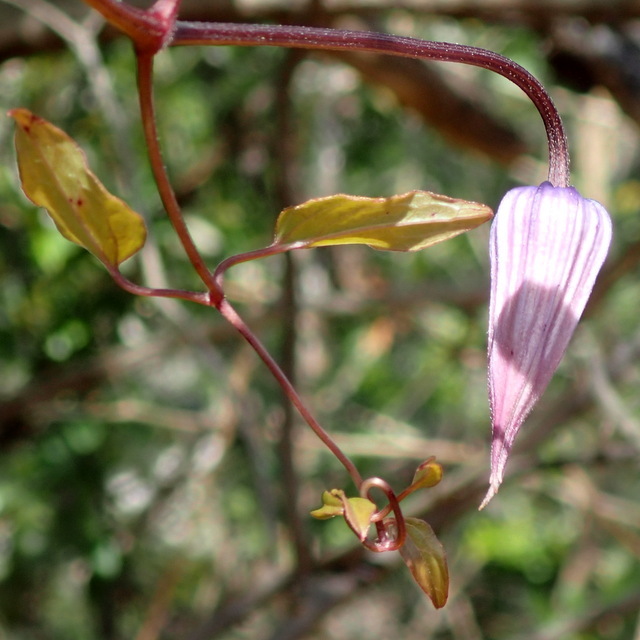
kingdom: Plantae
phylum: Tracheophyta
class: Magnoliopsida
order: Ranunculales
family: Ranunculaceae
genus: Clematis
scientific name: Clematis crispa
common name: Curly clematis
